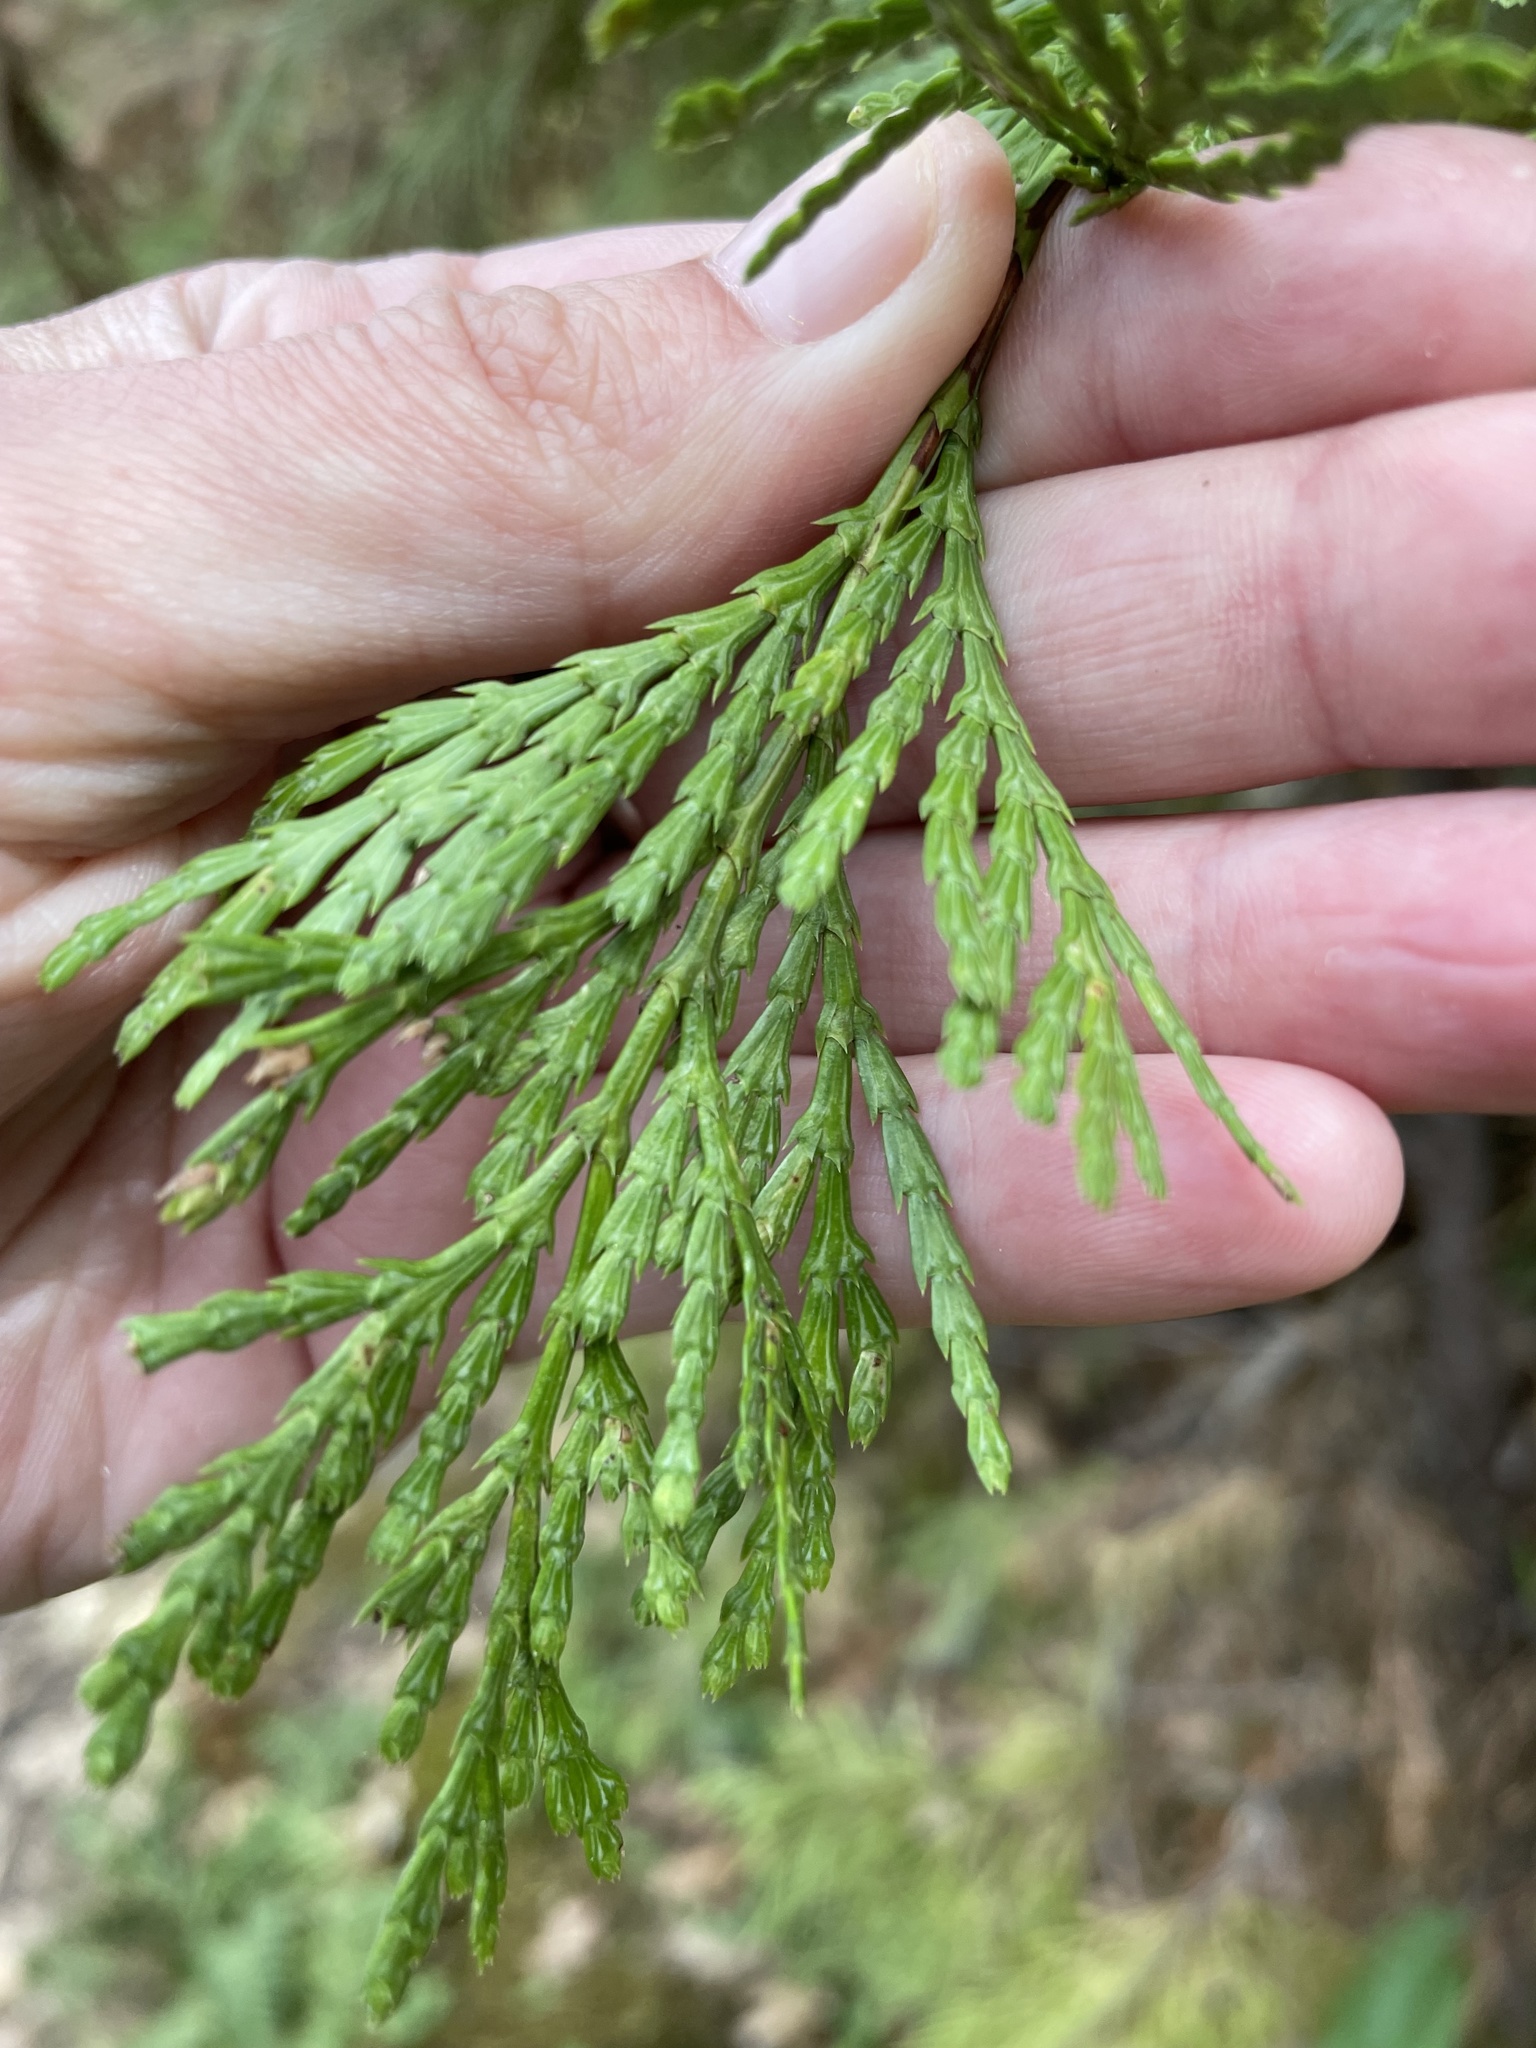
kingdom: Plantae
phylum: Tracheophyta
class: Pinopsida
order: Pinales
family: Cupressaceae
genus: Calocedrus
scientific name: Calocedrus decurrens
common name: Californian incense-cedar
